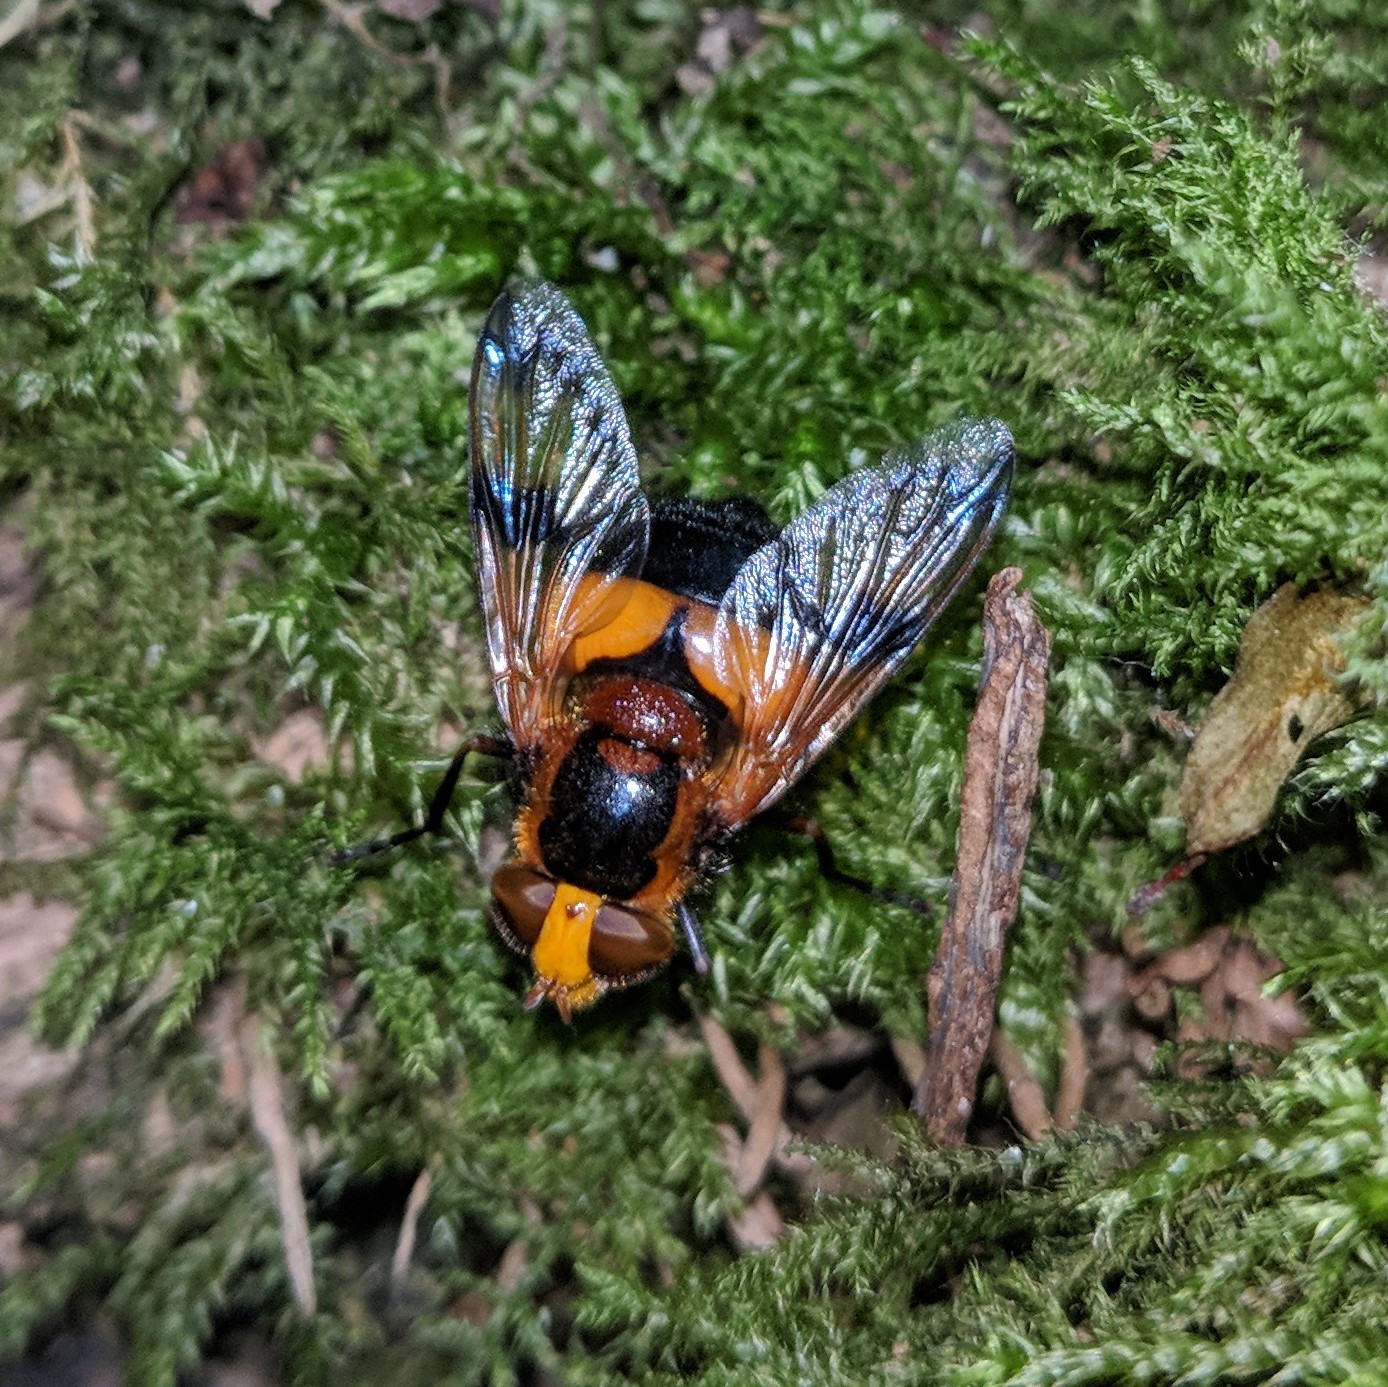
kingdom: Animalia
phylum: Arthropoda
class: Insecta
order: Diptera
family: Syrphidae
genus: Volucella
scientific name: Volucella inflata
